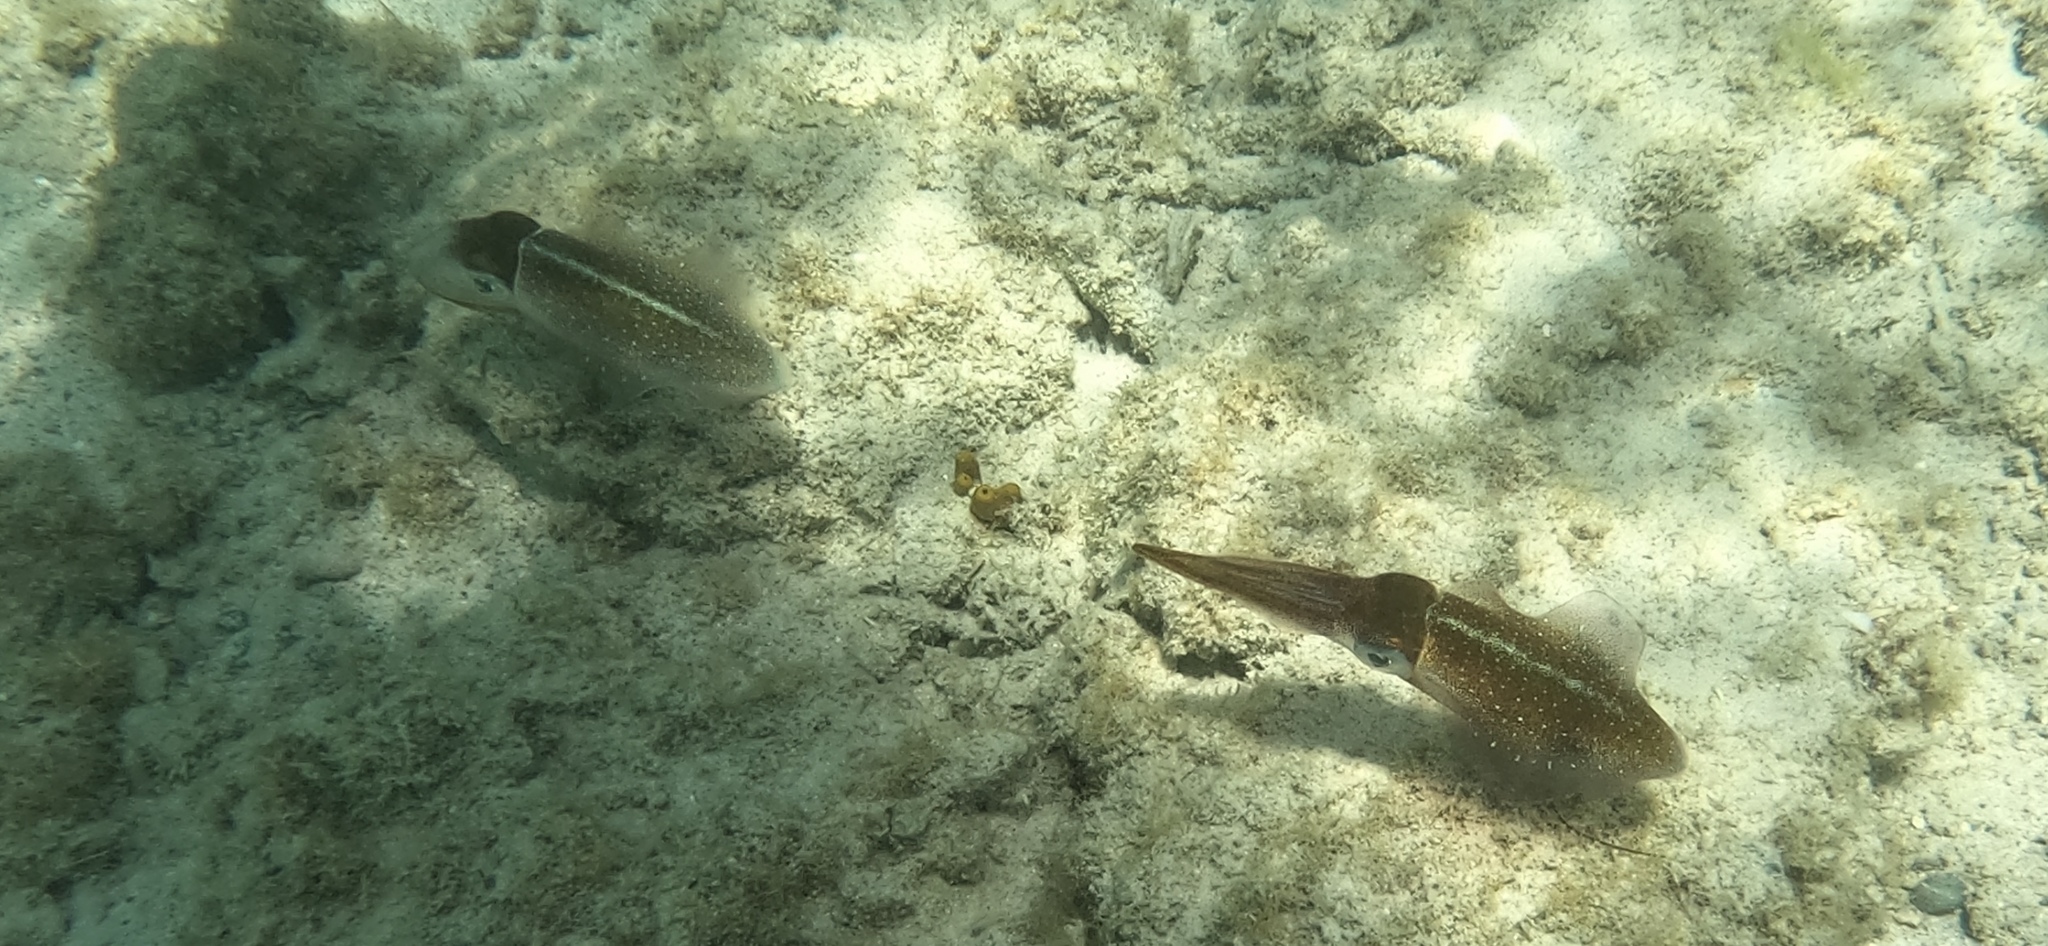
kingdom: Animalia
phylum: Mollusca
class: Cephalopoda
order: Myopsida
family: Loliginidae
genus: Sepioteuthis
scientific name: Sepioteuthis sepioidea
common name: Caribbean reef squid
